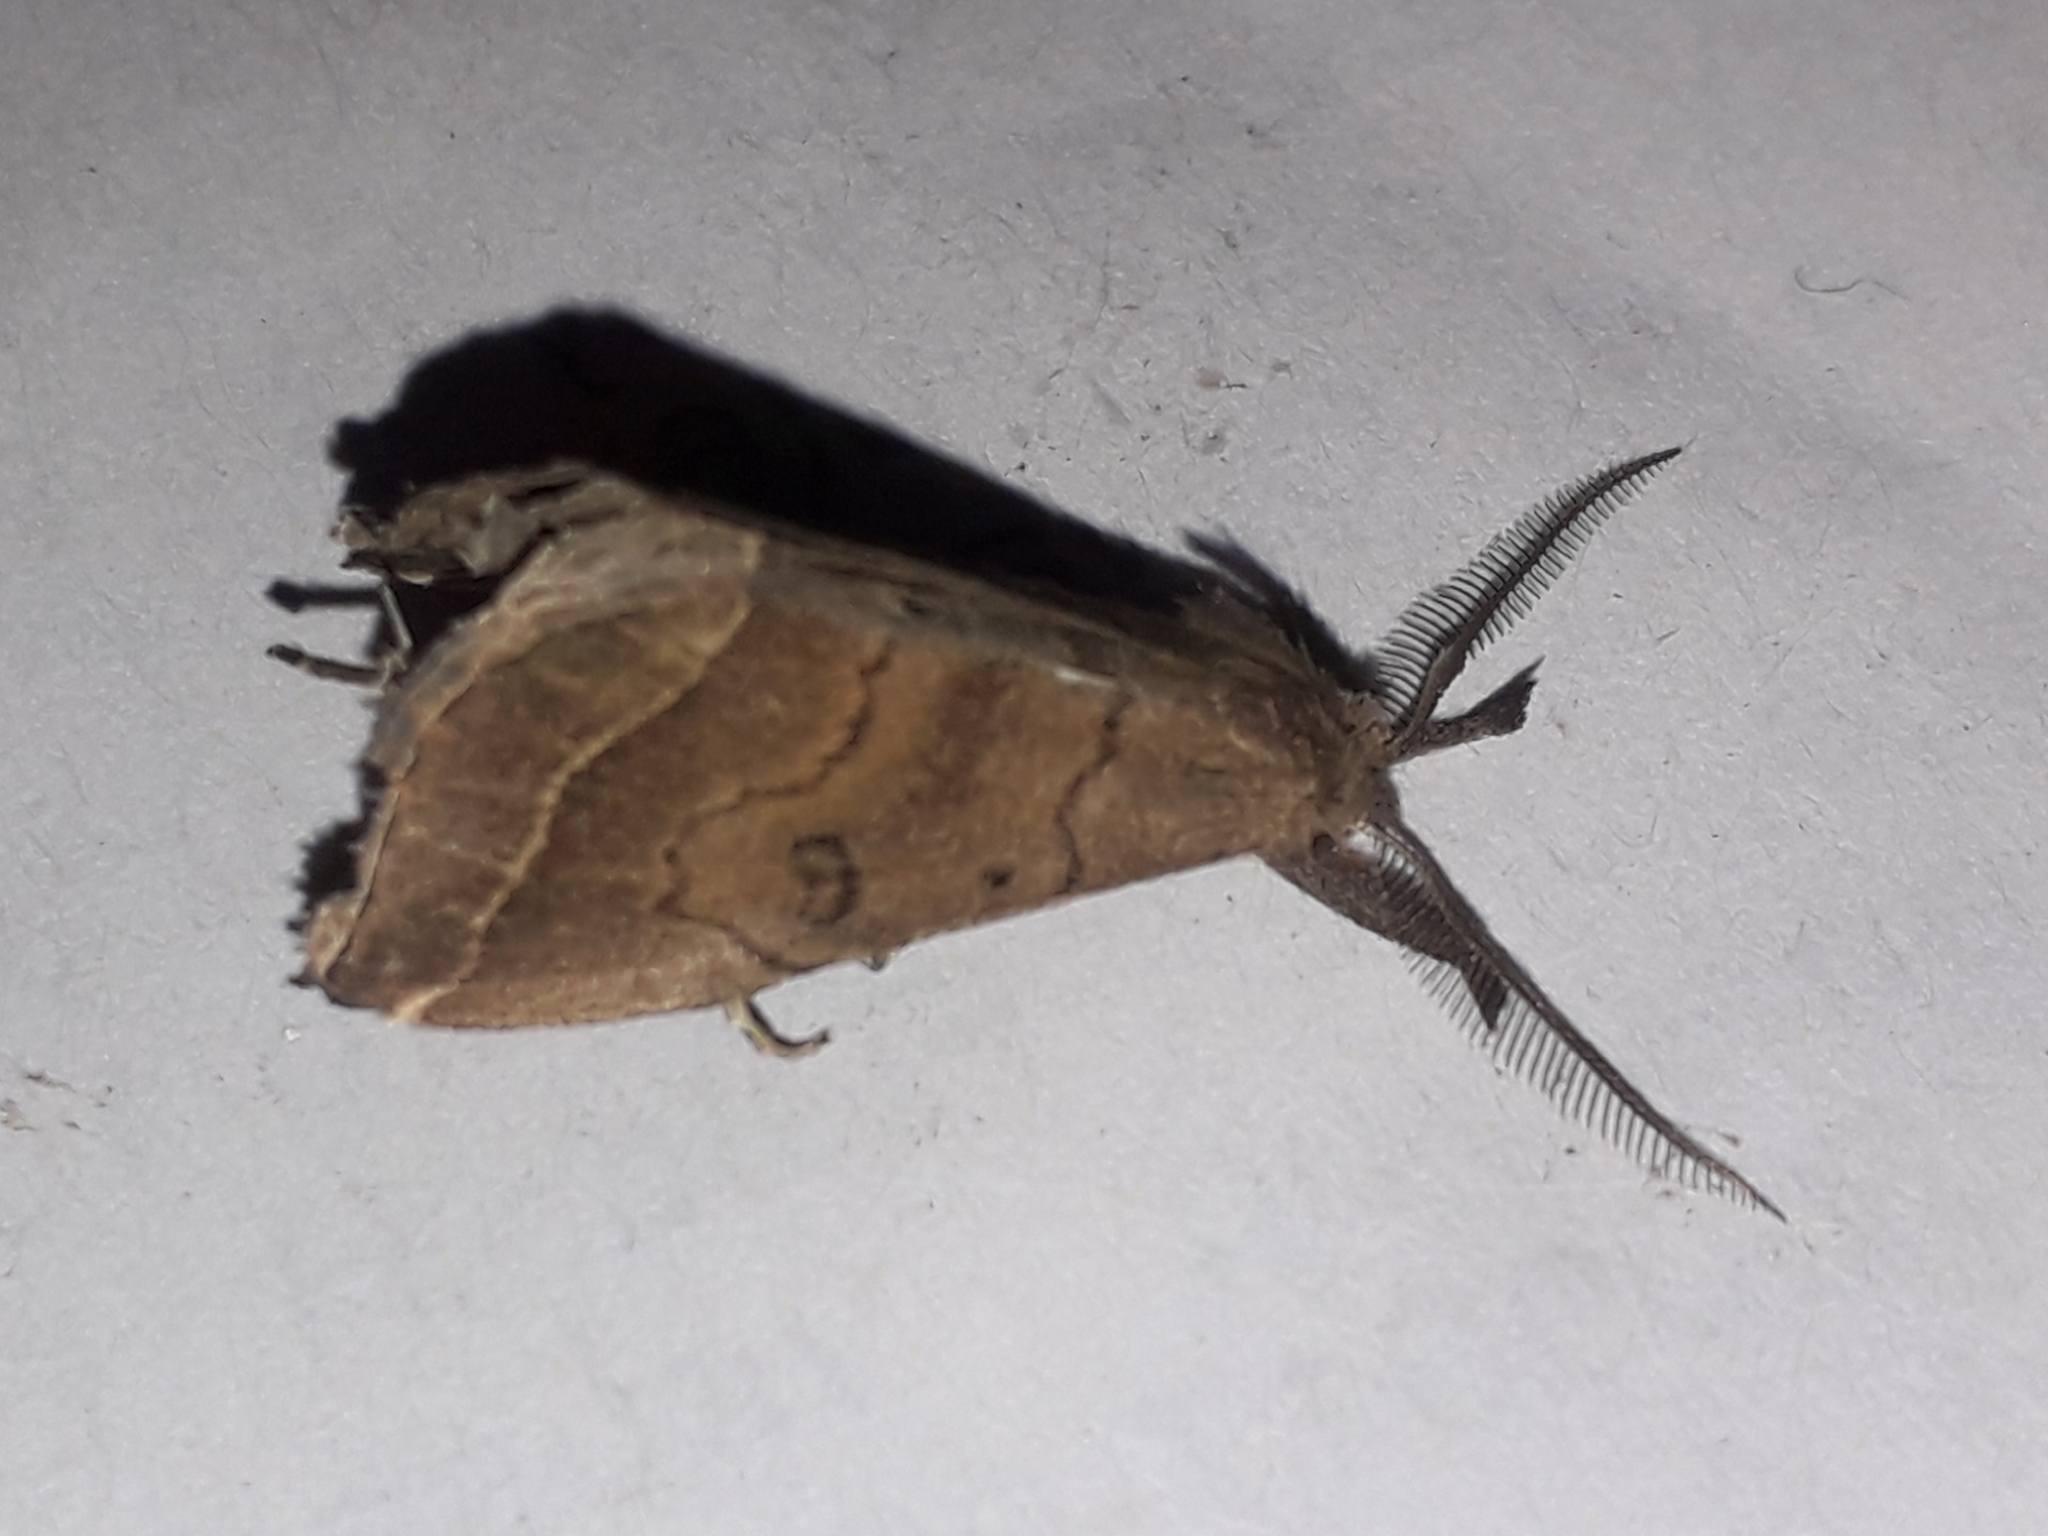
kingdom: Animalia
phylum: Arthropoda
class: Insecta
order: Lepidoptera
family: Erebidae
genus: Pechipogo
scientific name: Pechipogo plumigeralis
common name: Plumed fan-foot
